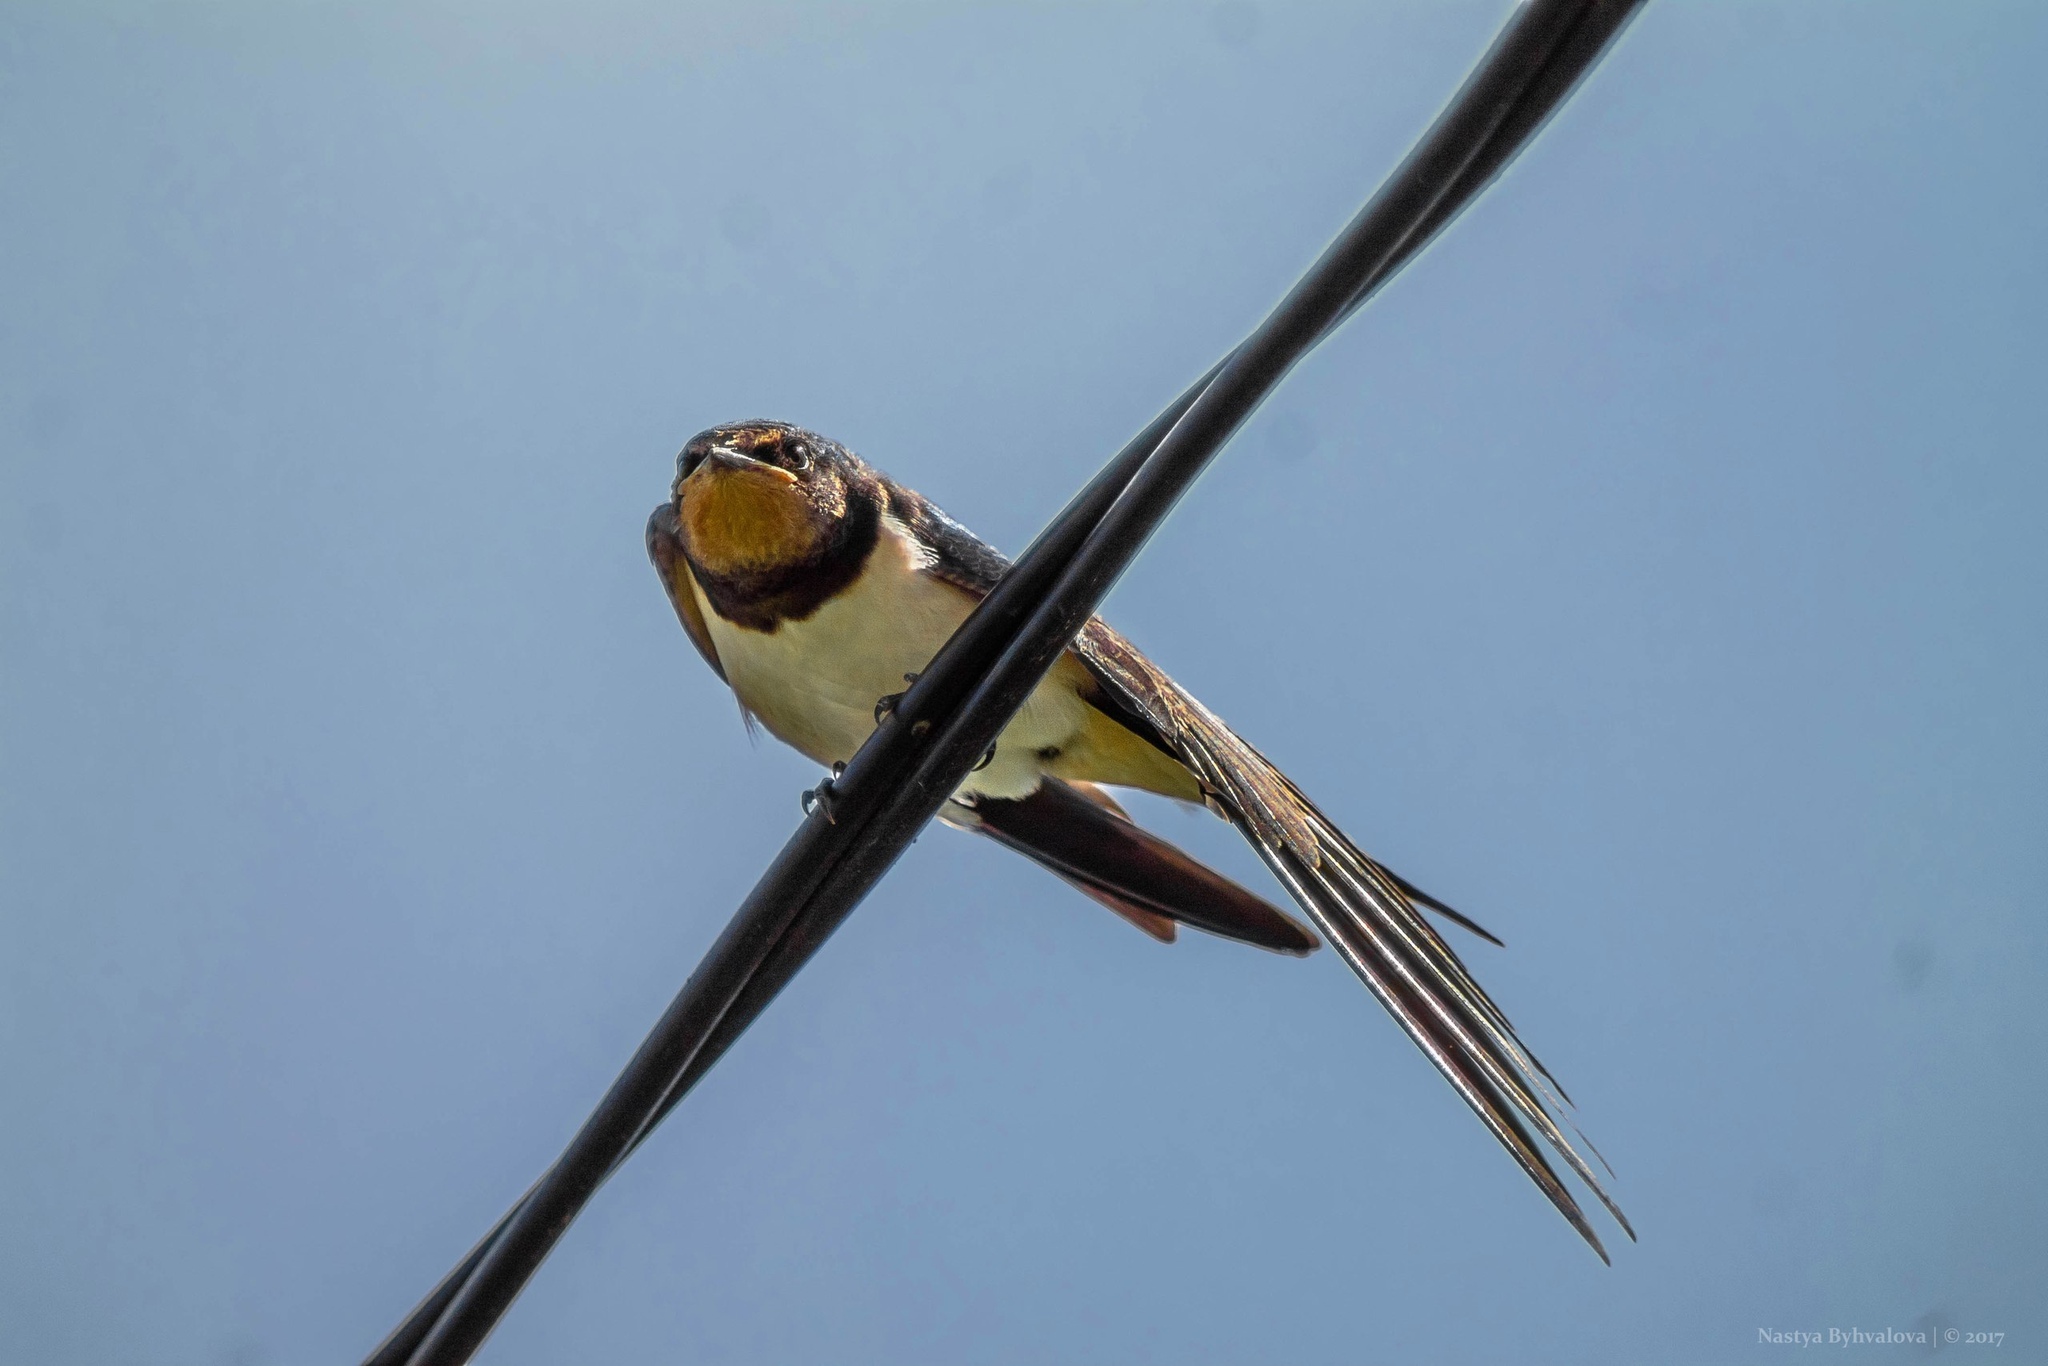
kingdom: Animalia
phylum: Chordata
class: Aves
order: Passeriformes
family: Hirundinidae
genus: Hirundo
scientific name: Hirundo rustica
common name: Barn swallow
